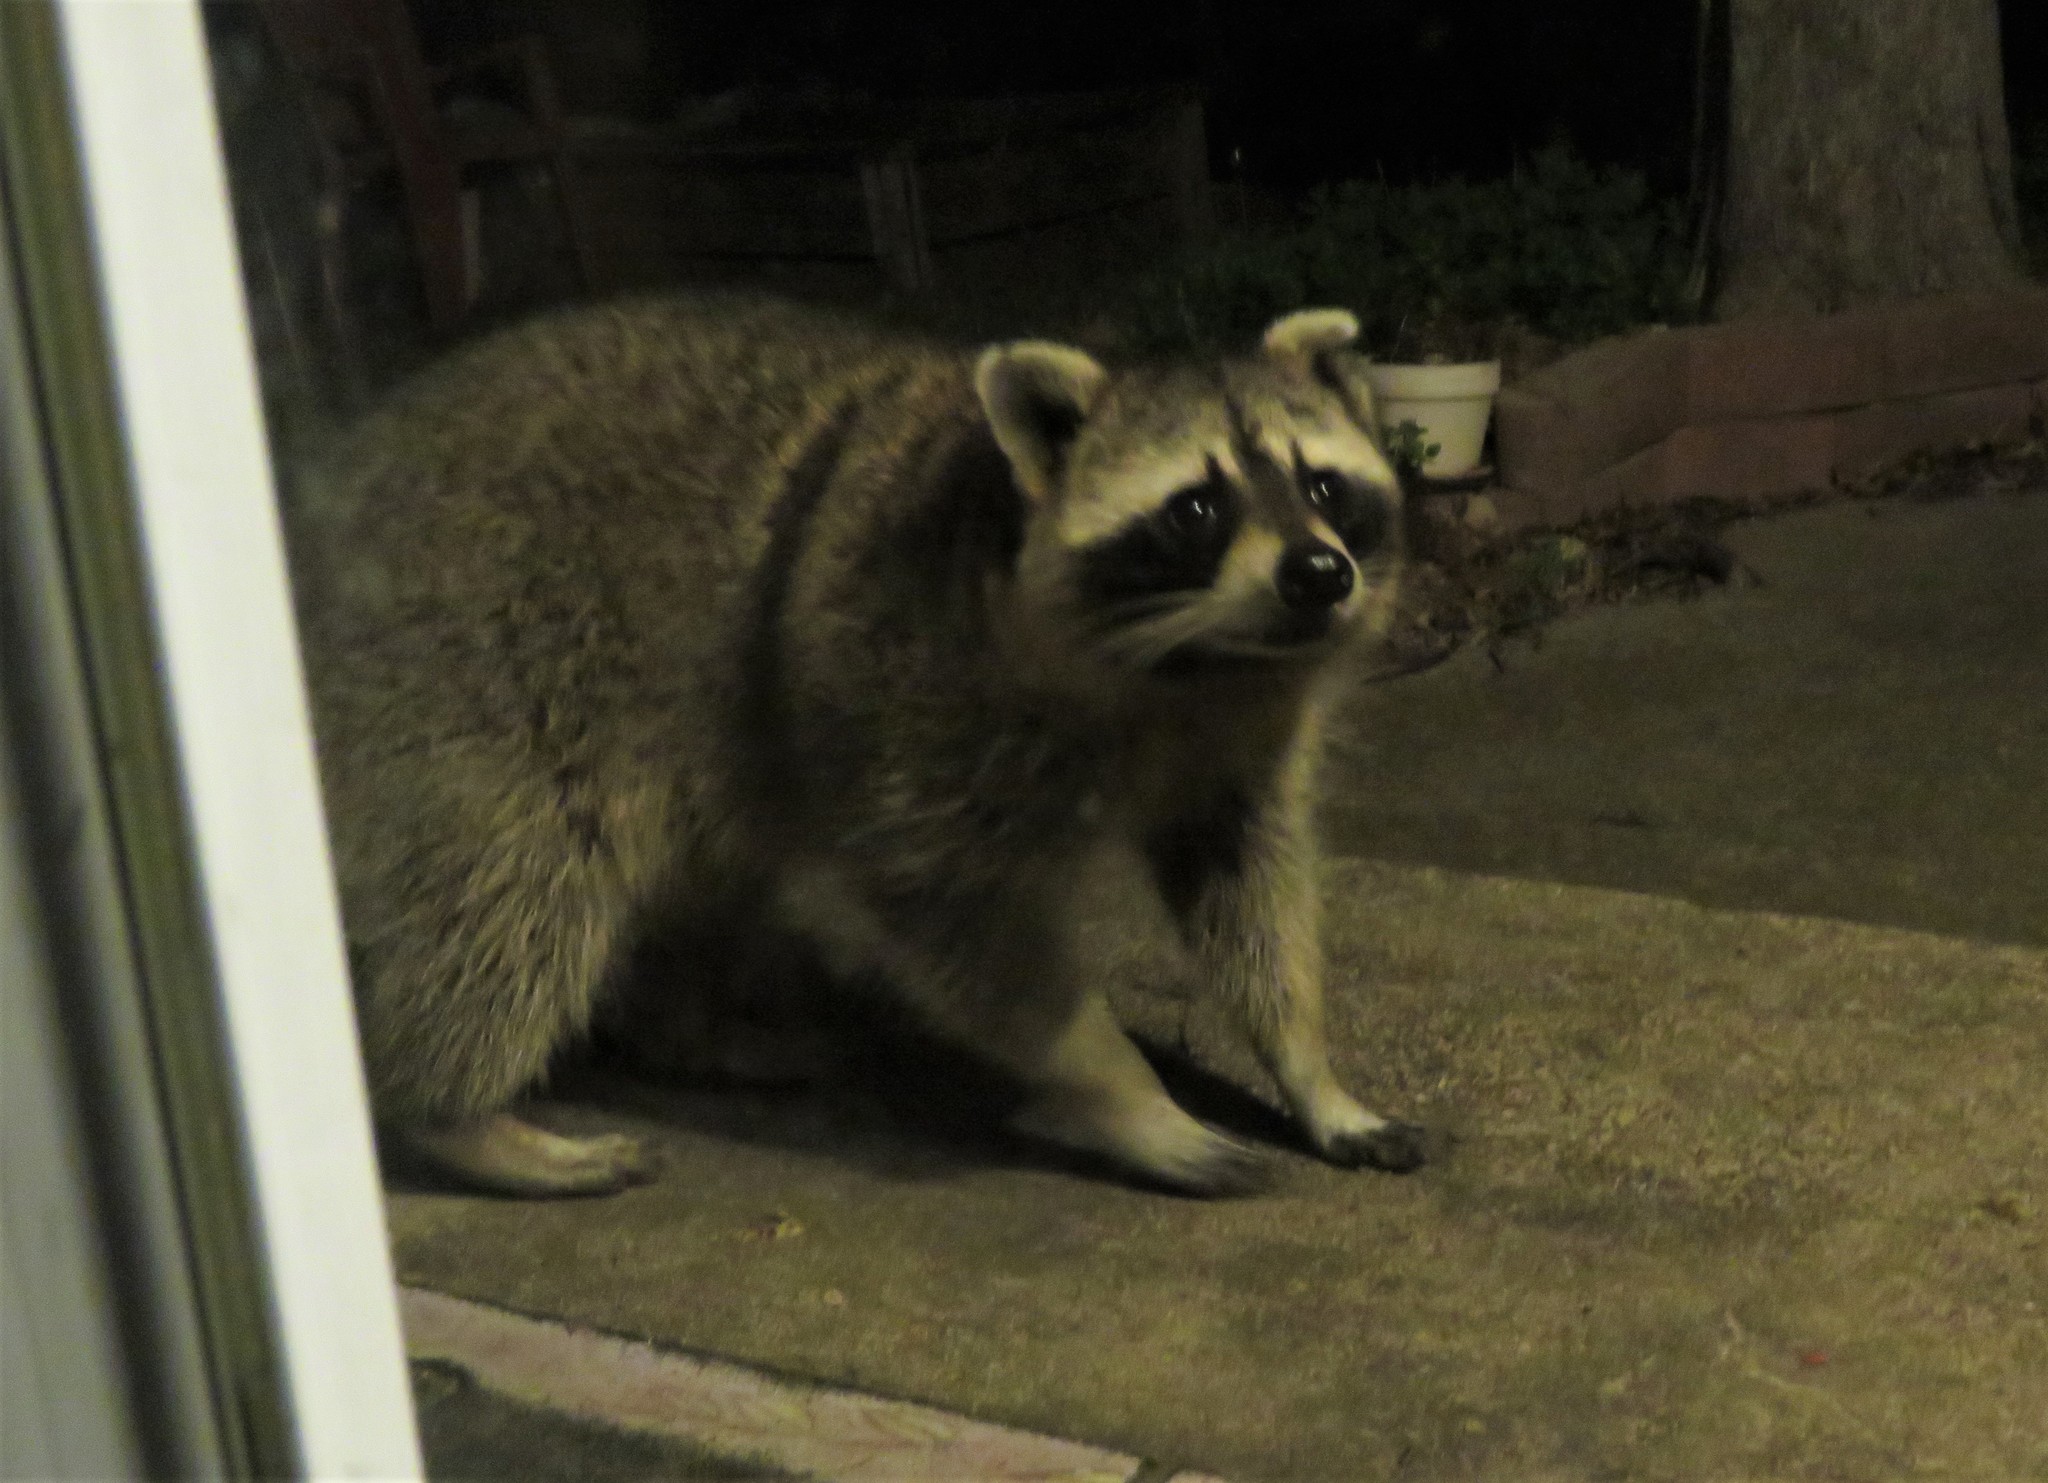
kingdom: Animalia
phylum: Chordata
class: Mammalia
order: Carnivora
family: Procyonidae
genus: Procyon
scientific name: Procyon lotor
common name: Raccoon
